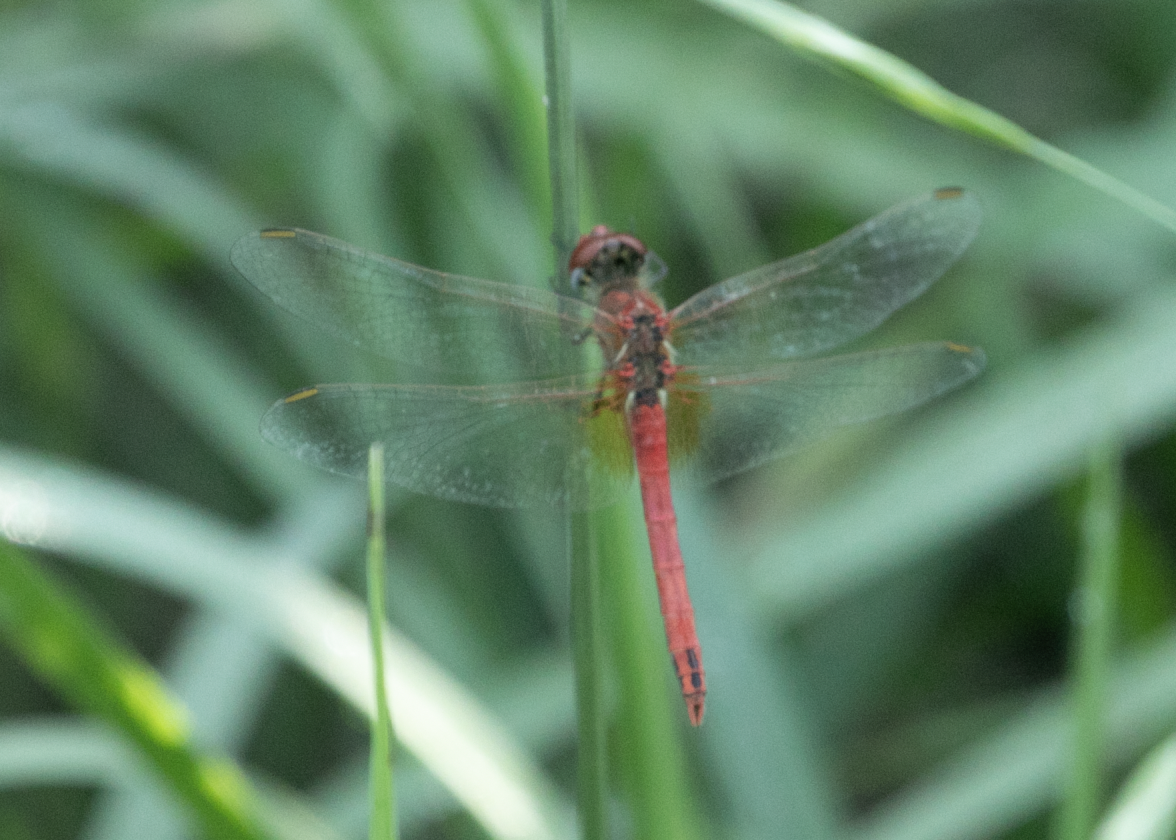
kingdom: Animalia
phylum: Arthropoda
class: Insecta
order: Odonata
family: Libellulidae
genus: Sympetrum
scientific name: Sympetrum fonscolombii
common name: Red-veined darter
